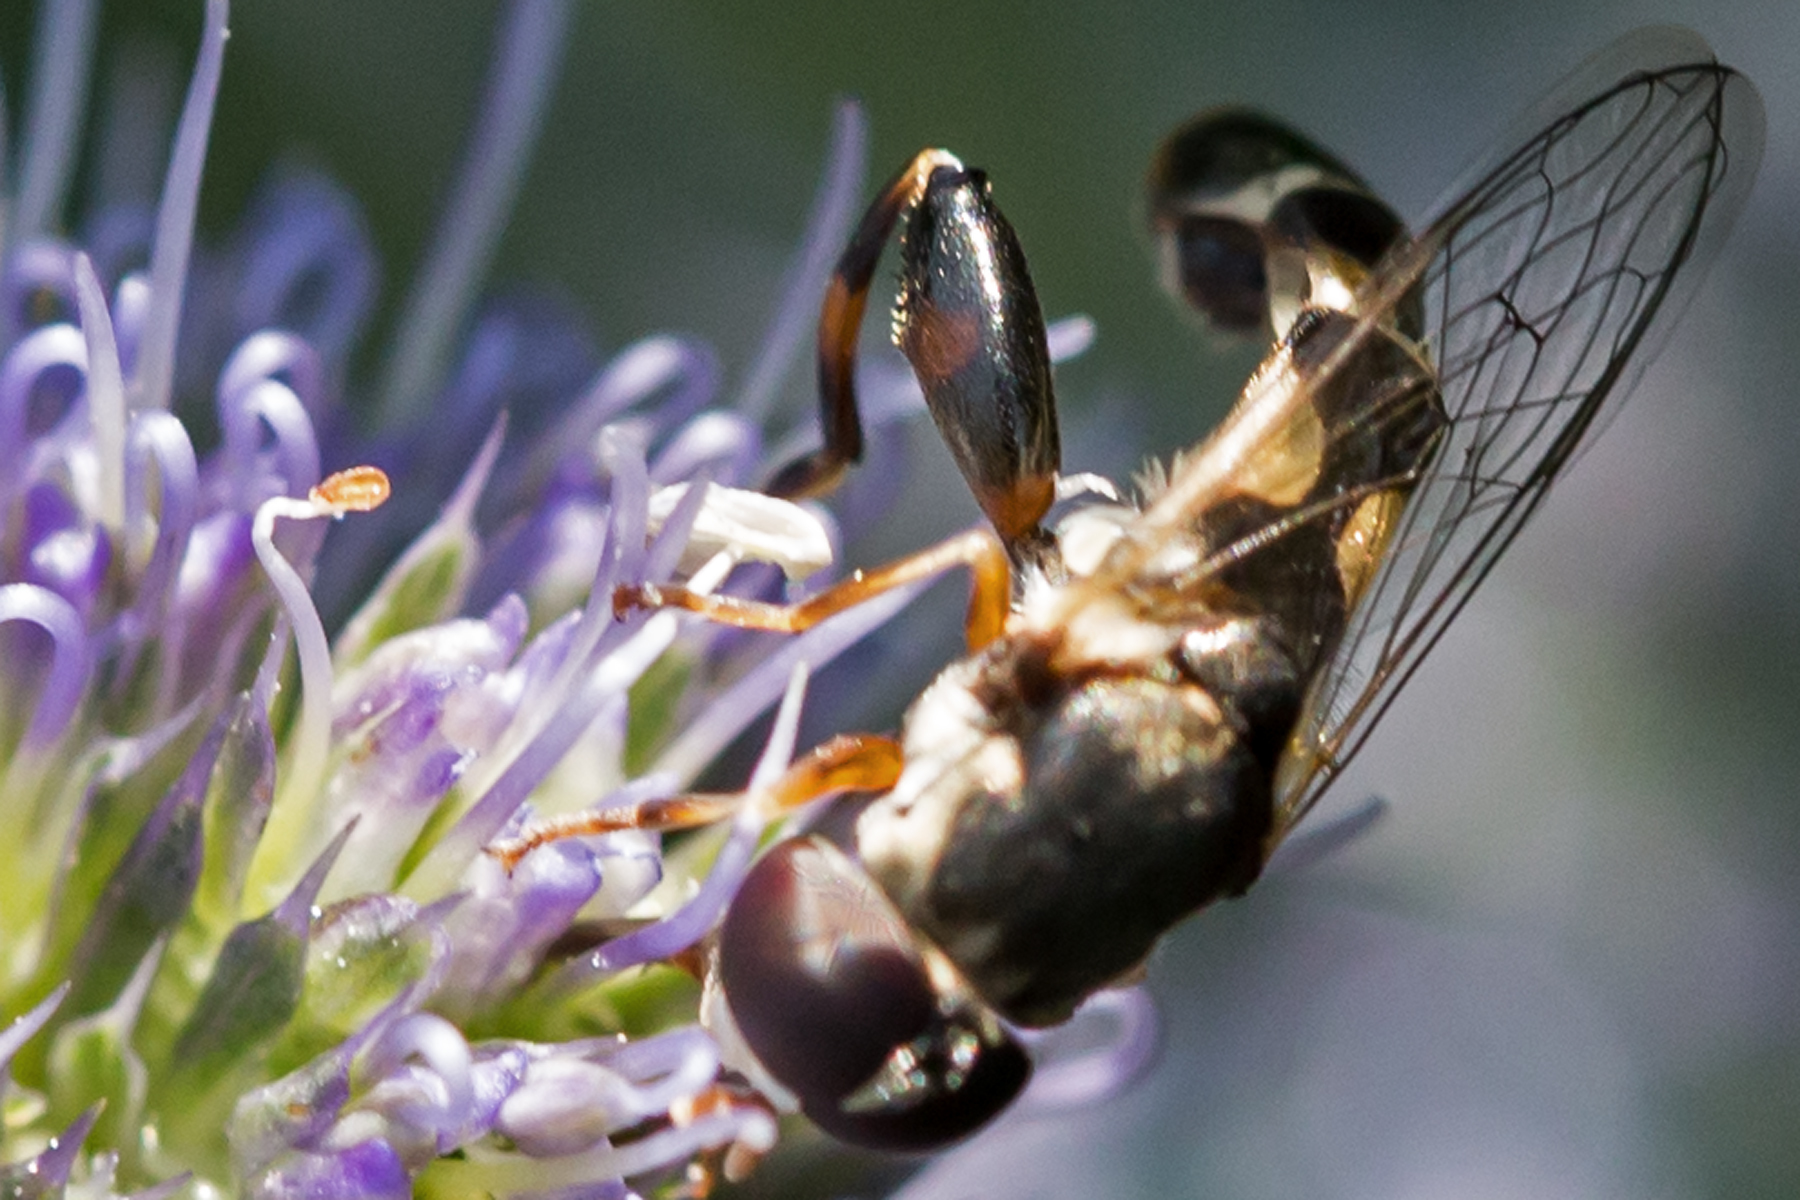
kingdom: Animalia
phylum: Arthropoda
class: Insecta
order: Diptera
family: Syrphidae
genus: Syritta
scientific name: Syritta pipiens
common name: Hover fly
